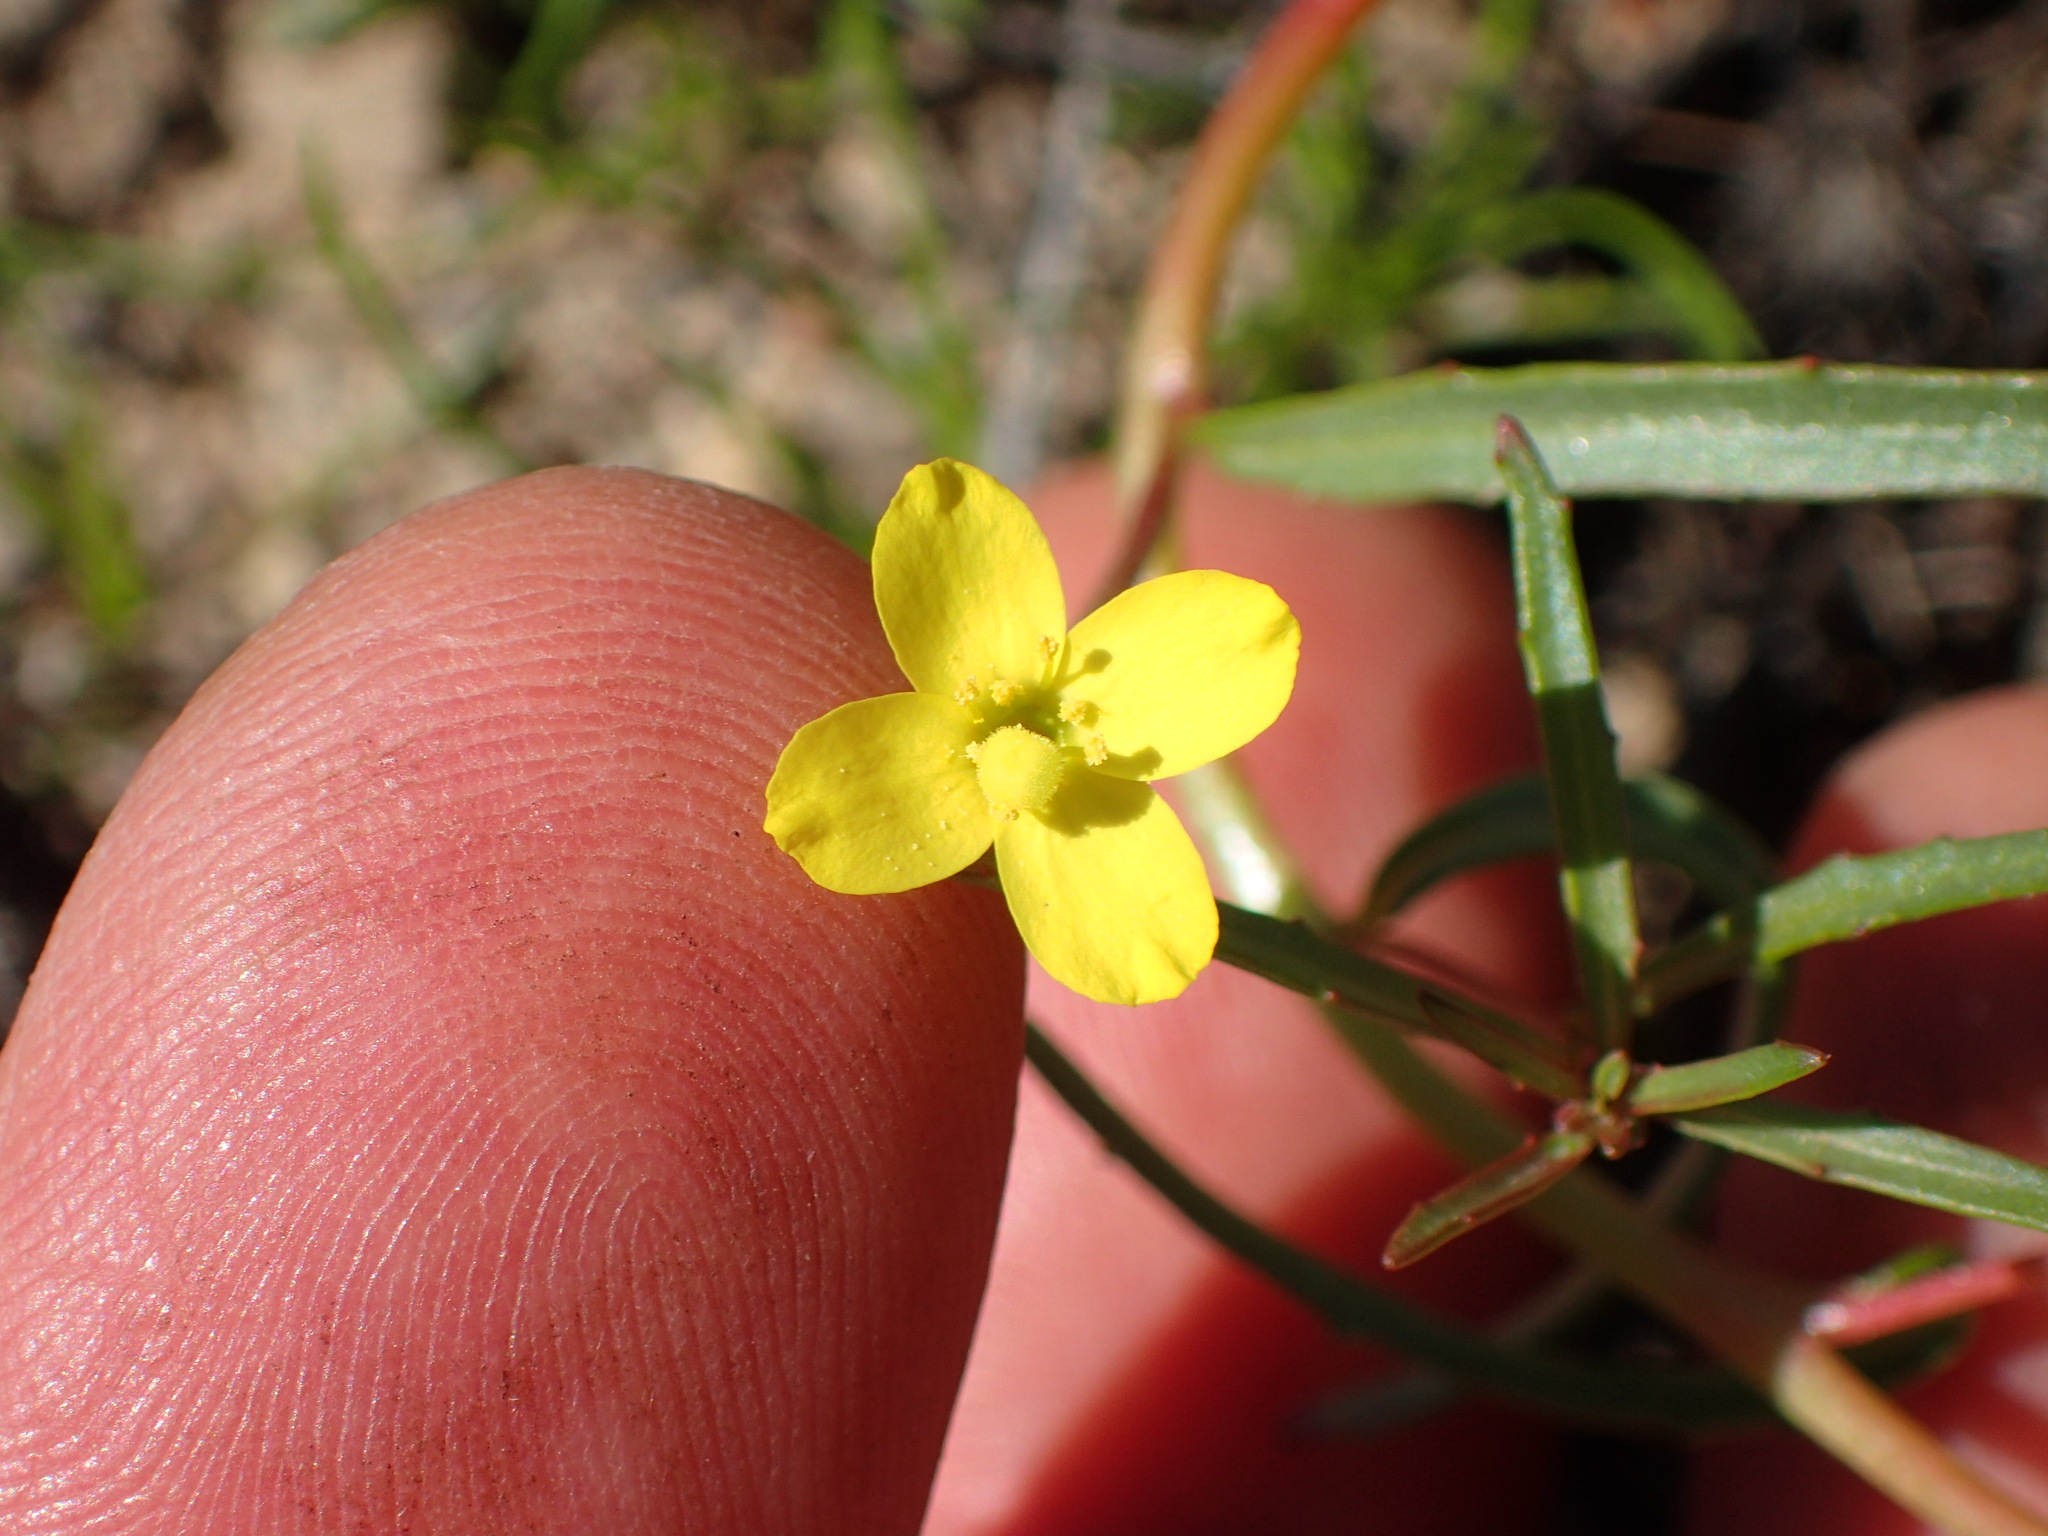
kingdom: Plantae
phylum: Tracheophyta
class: Magnoliopsida
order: Myrtales
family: Onagraceae
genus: Camissonia
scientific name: Camissonia strigulosa
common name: Contorted-primrose
